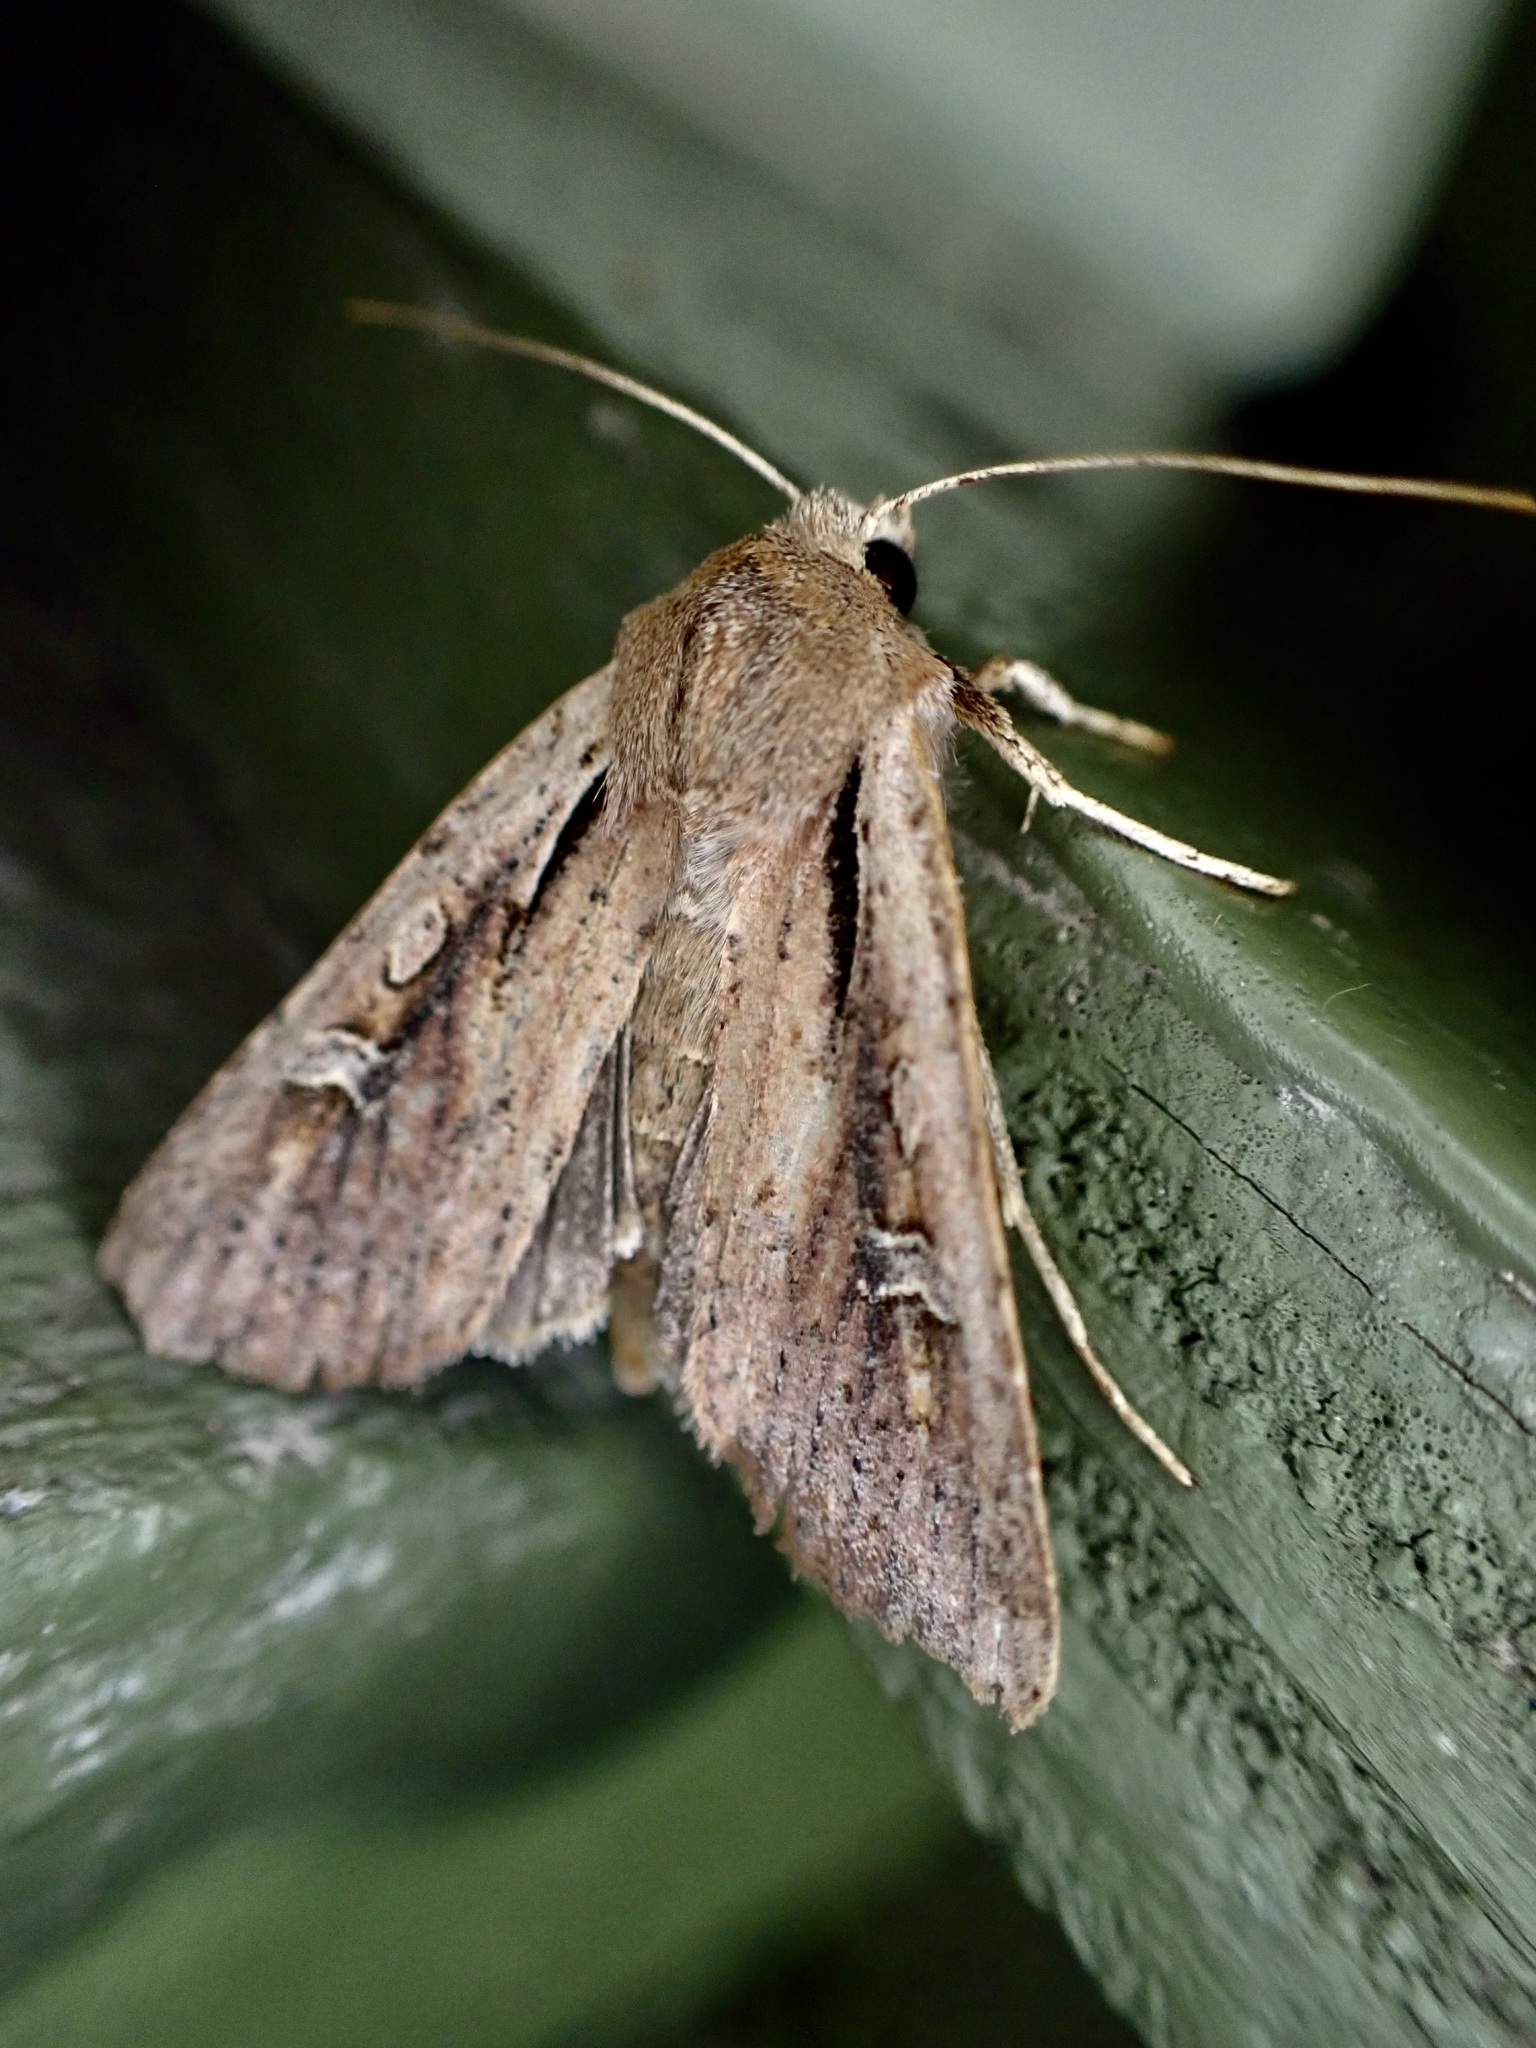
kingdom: Animalia
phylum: Arthropoda
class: Insecta
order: Lepidoptera
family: Noctuidae
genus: Ichneutica
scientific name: Ichneutica atristriga
